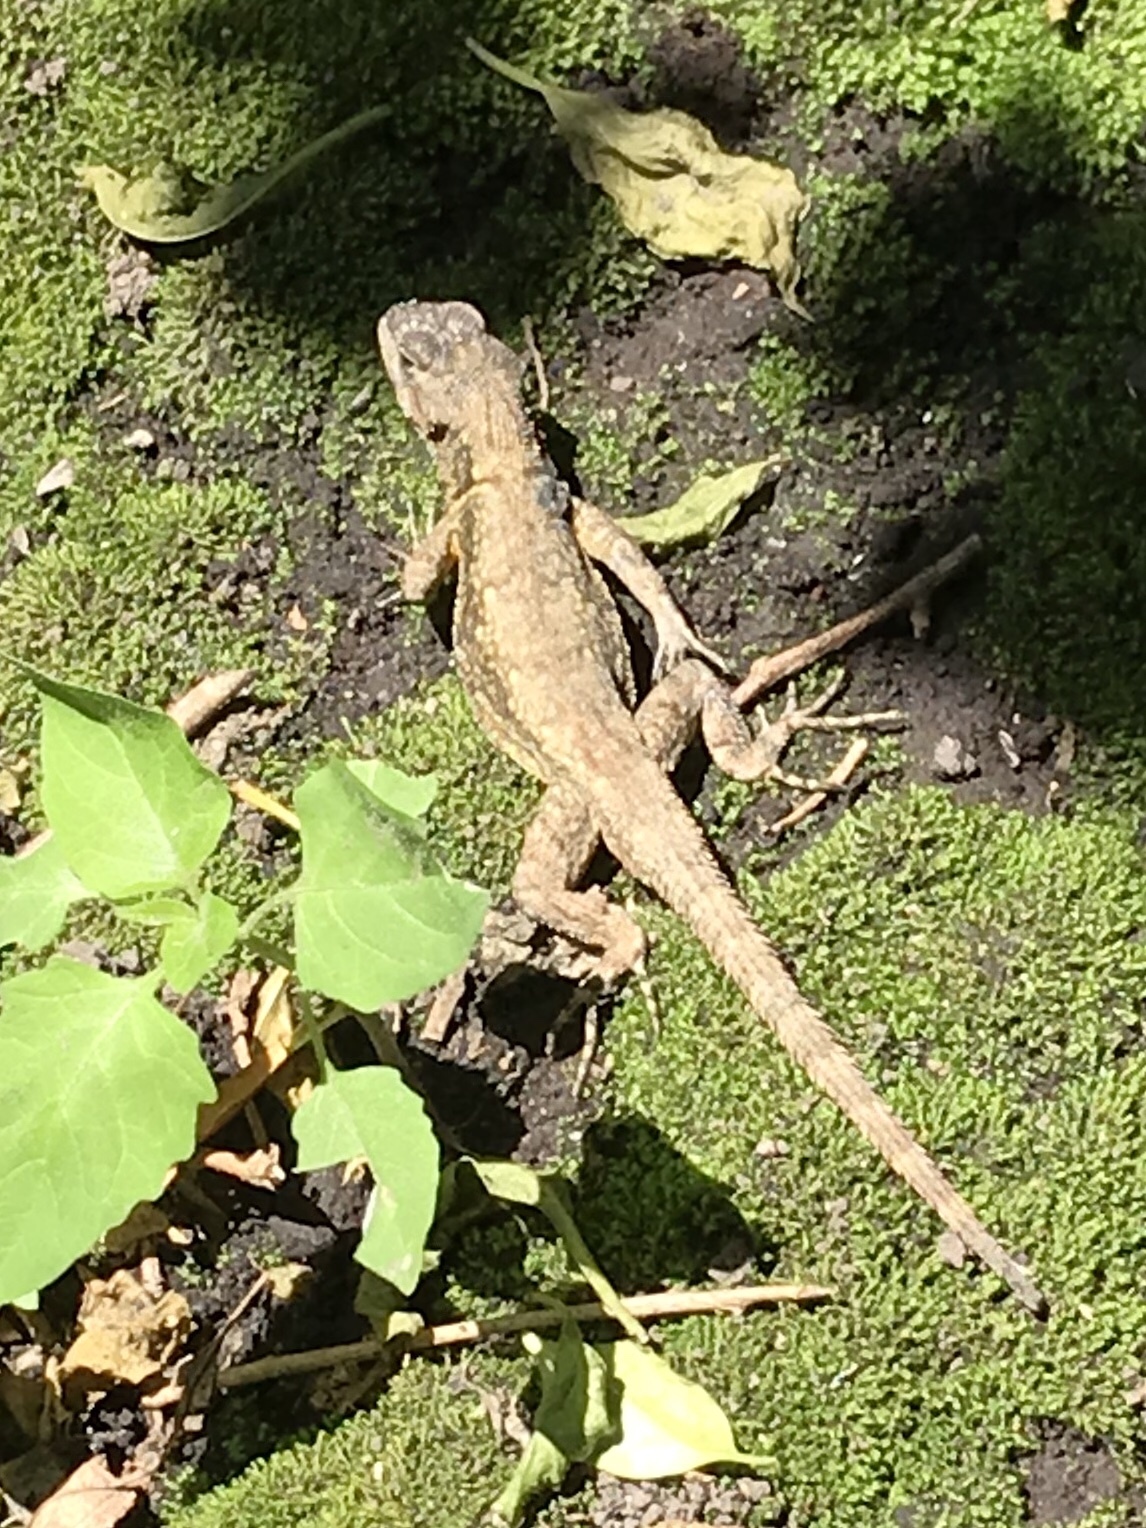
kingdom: Animalia
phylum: Chordata
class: Squamata
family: Phrynosomatidae
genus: Sceloporus
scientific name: Sceloporus grammicus
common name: Mesquite lizard
